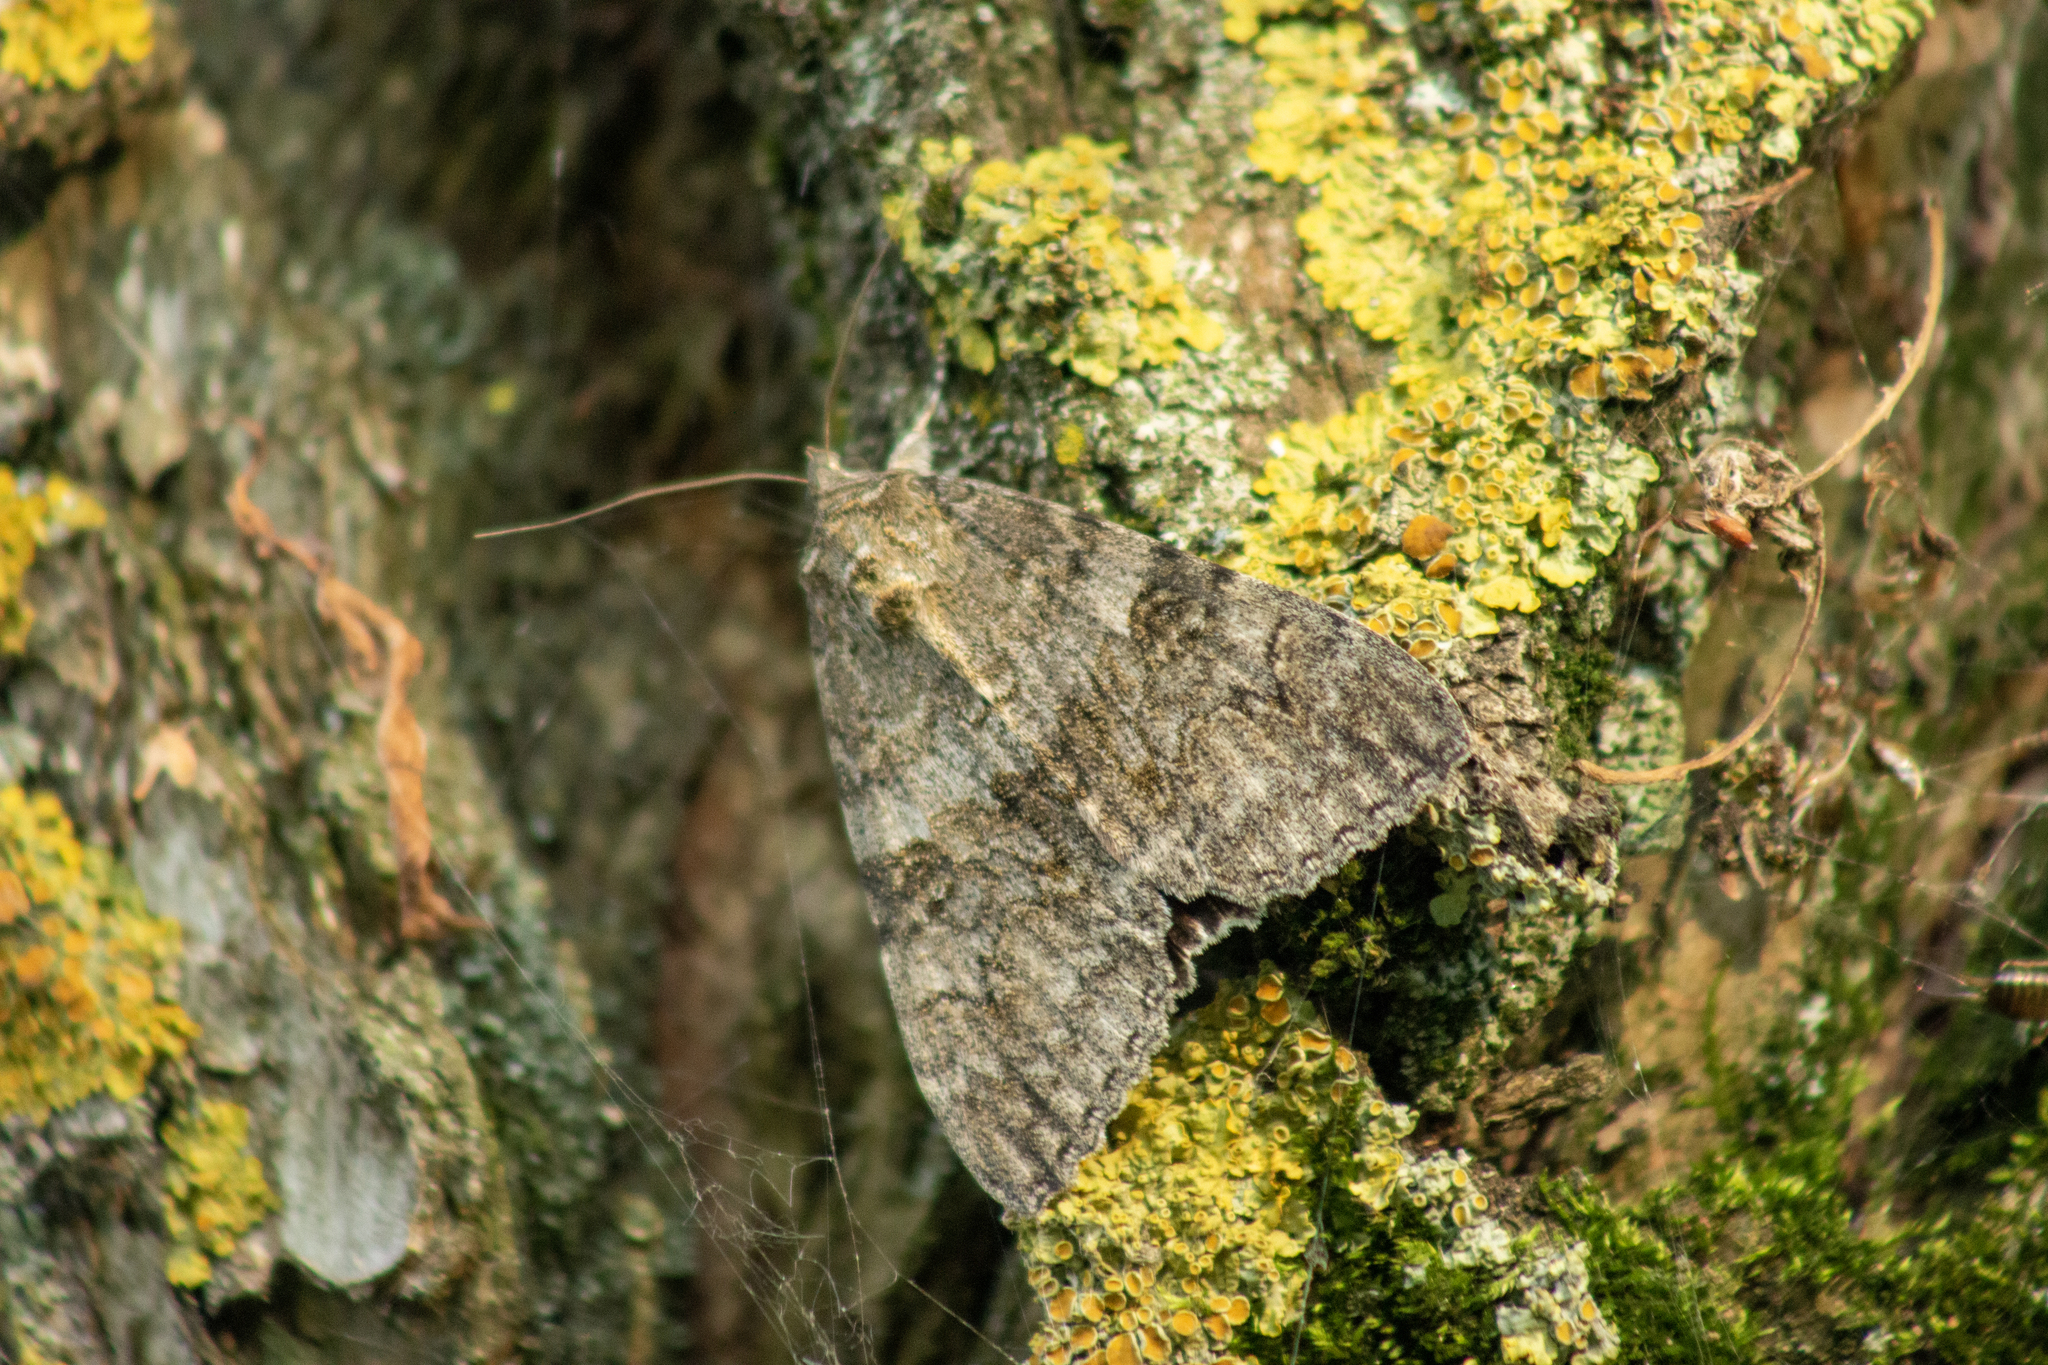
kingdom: Animalia
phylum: Arthropoda
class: Insecta
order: Lepidoptera
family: Erebidae
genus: Catocala
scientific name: Catocala nupta
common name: Red underwing
